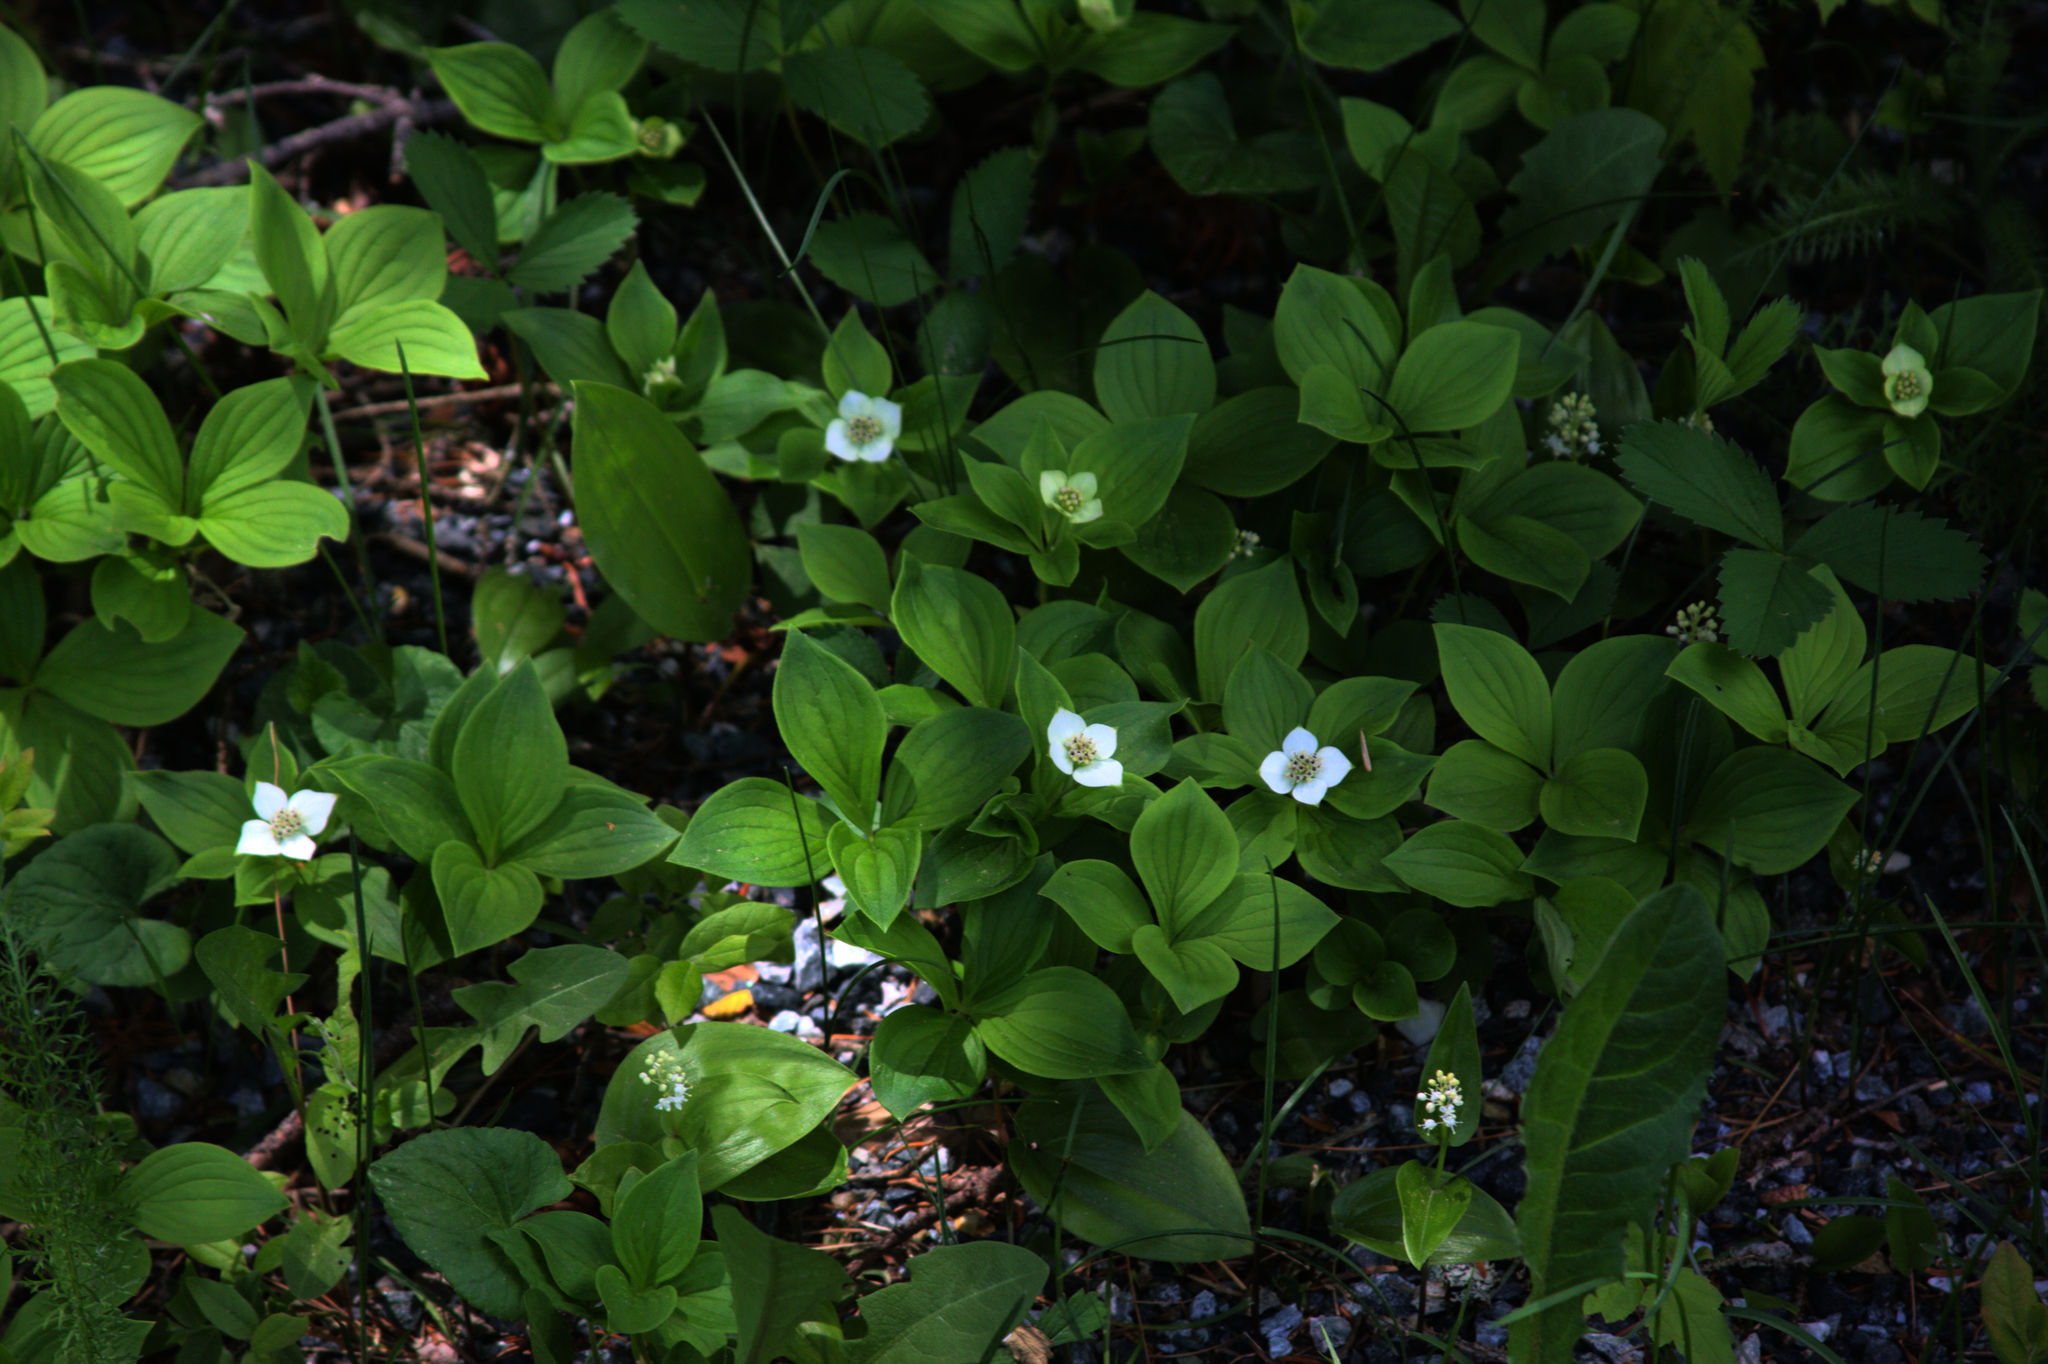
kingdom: Plantae
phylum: Tracheophyta
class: Magnoliopsida
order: Cornales
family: Cornaceae
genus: Cornus
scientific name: Cornus canadensis
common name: Creeping dogwood
